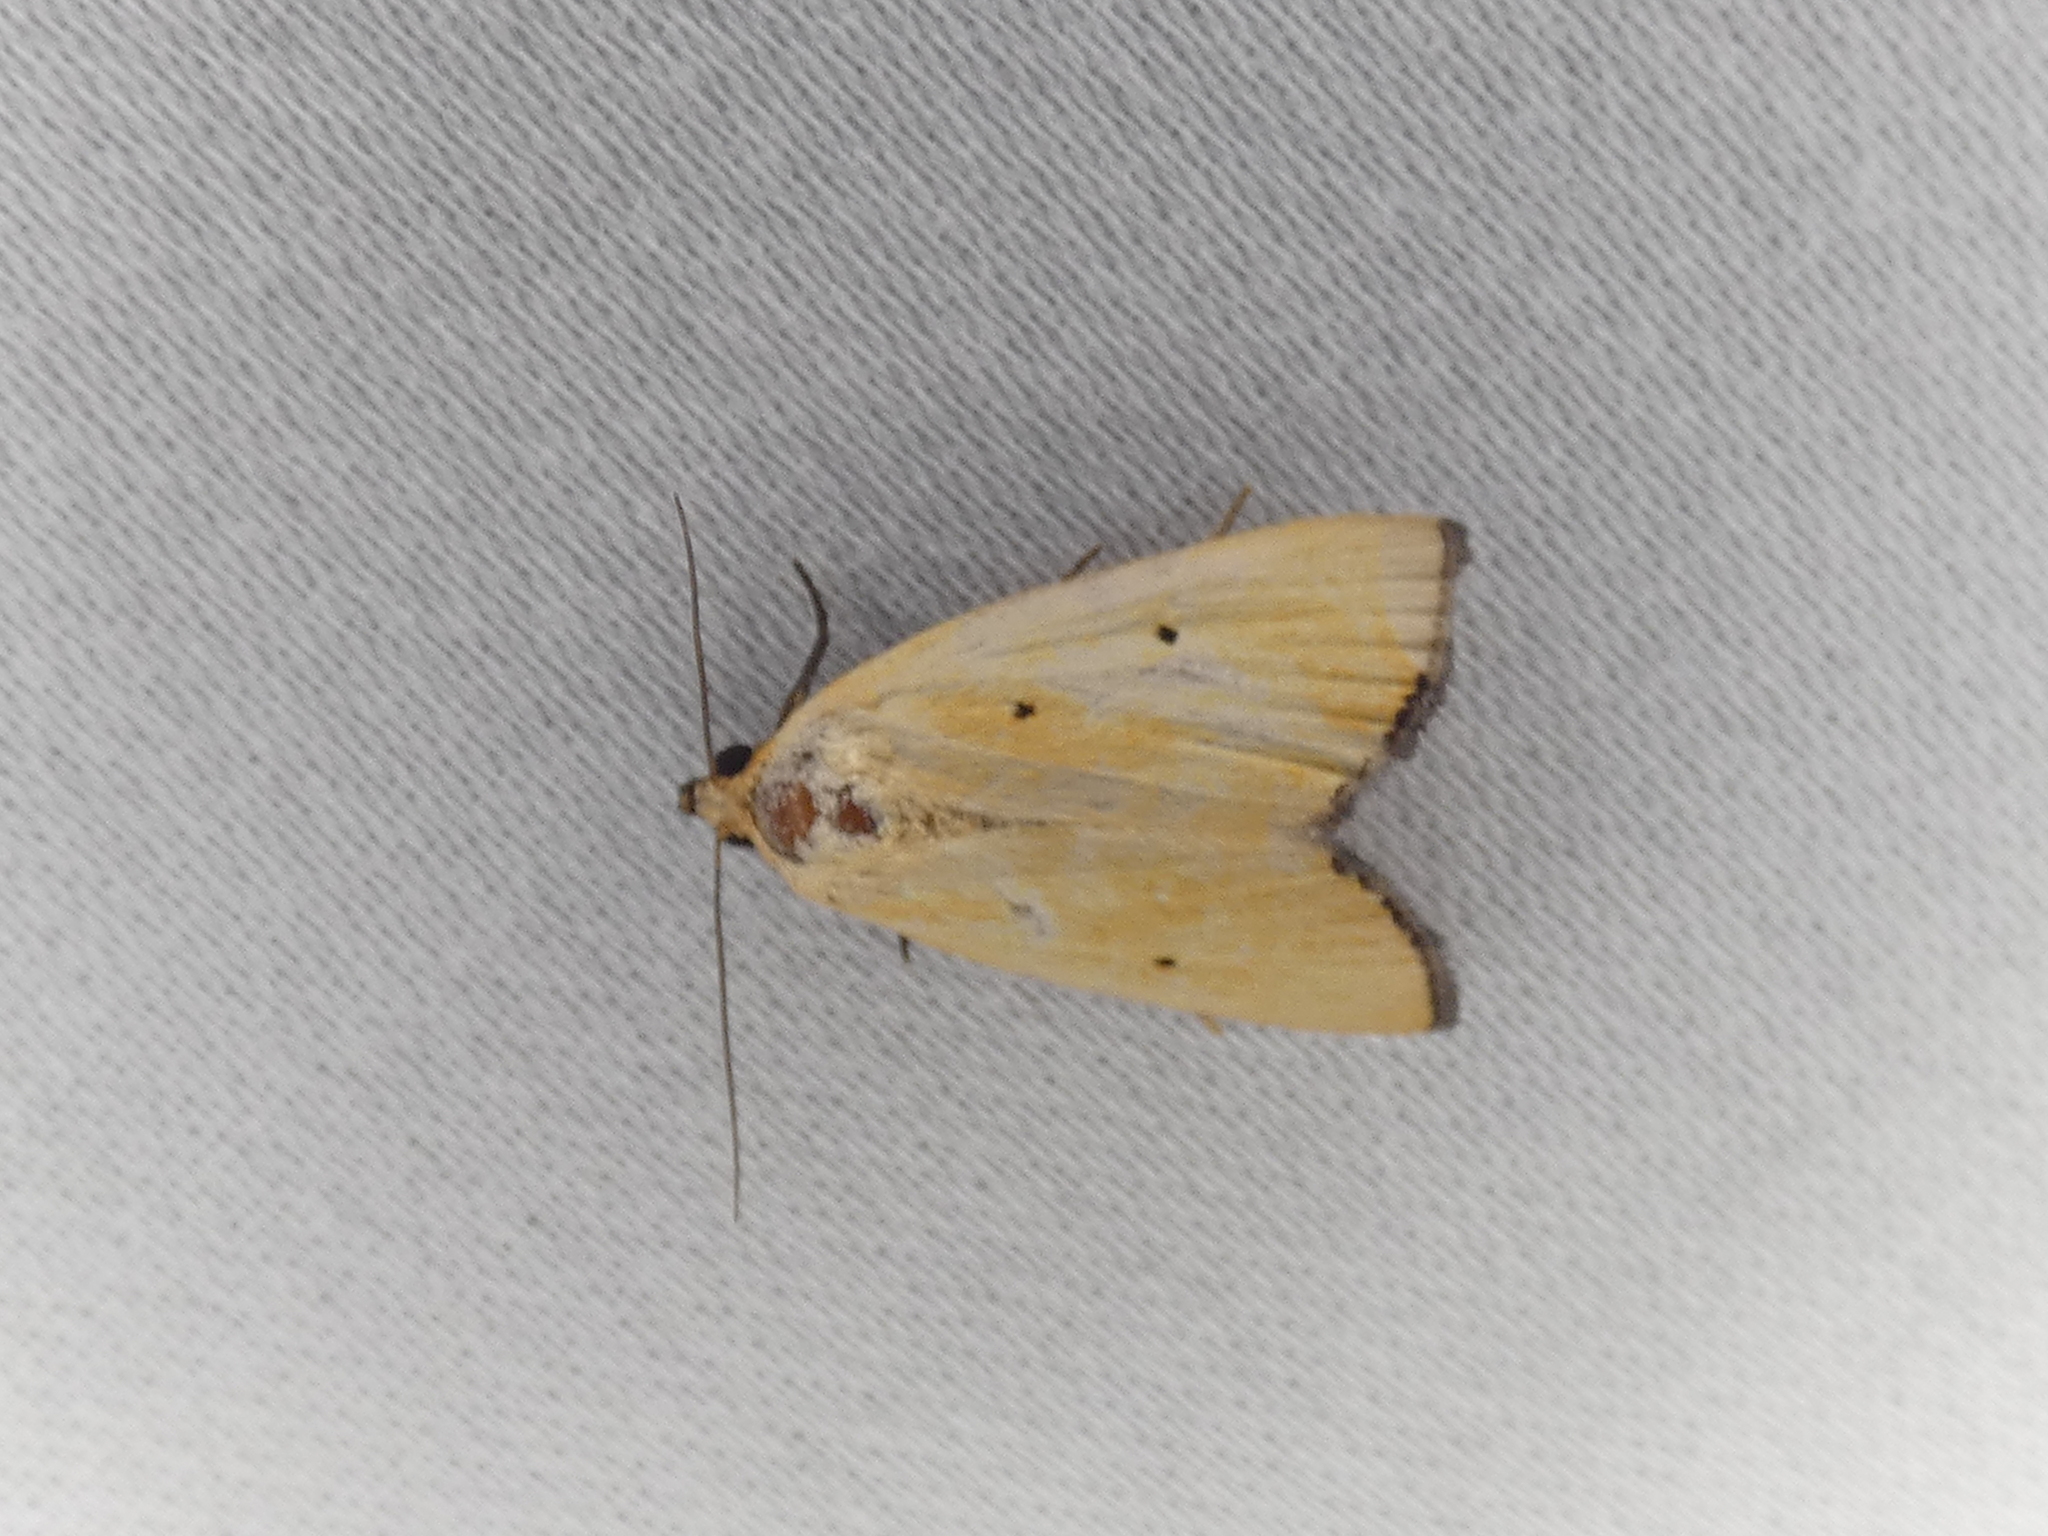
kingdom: Animalia
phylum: Arthropoda
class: Insecta
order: Lepidoptera
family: Noctuidae
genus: Marimatha
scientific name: Marimatha nigrofimbria
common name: Black-bordered lemon moth
